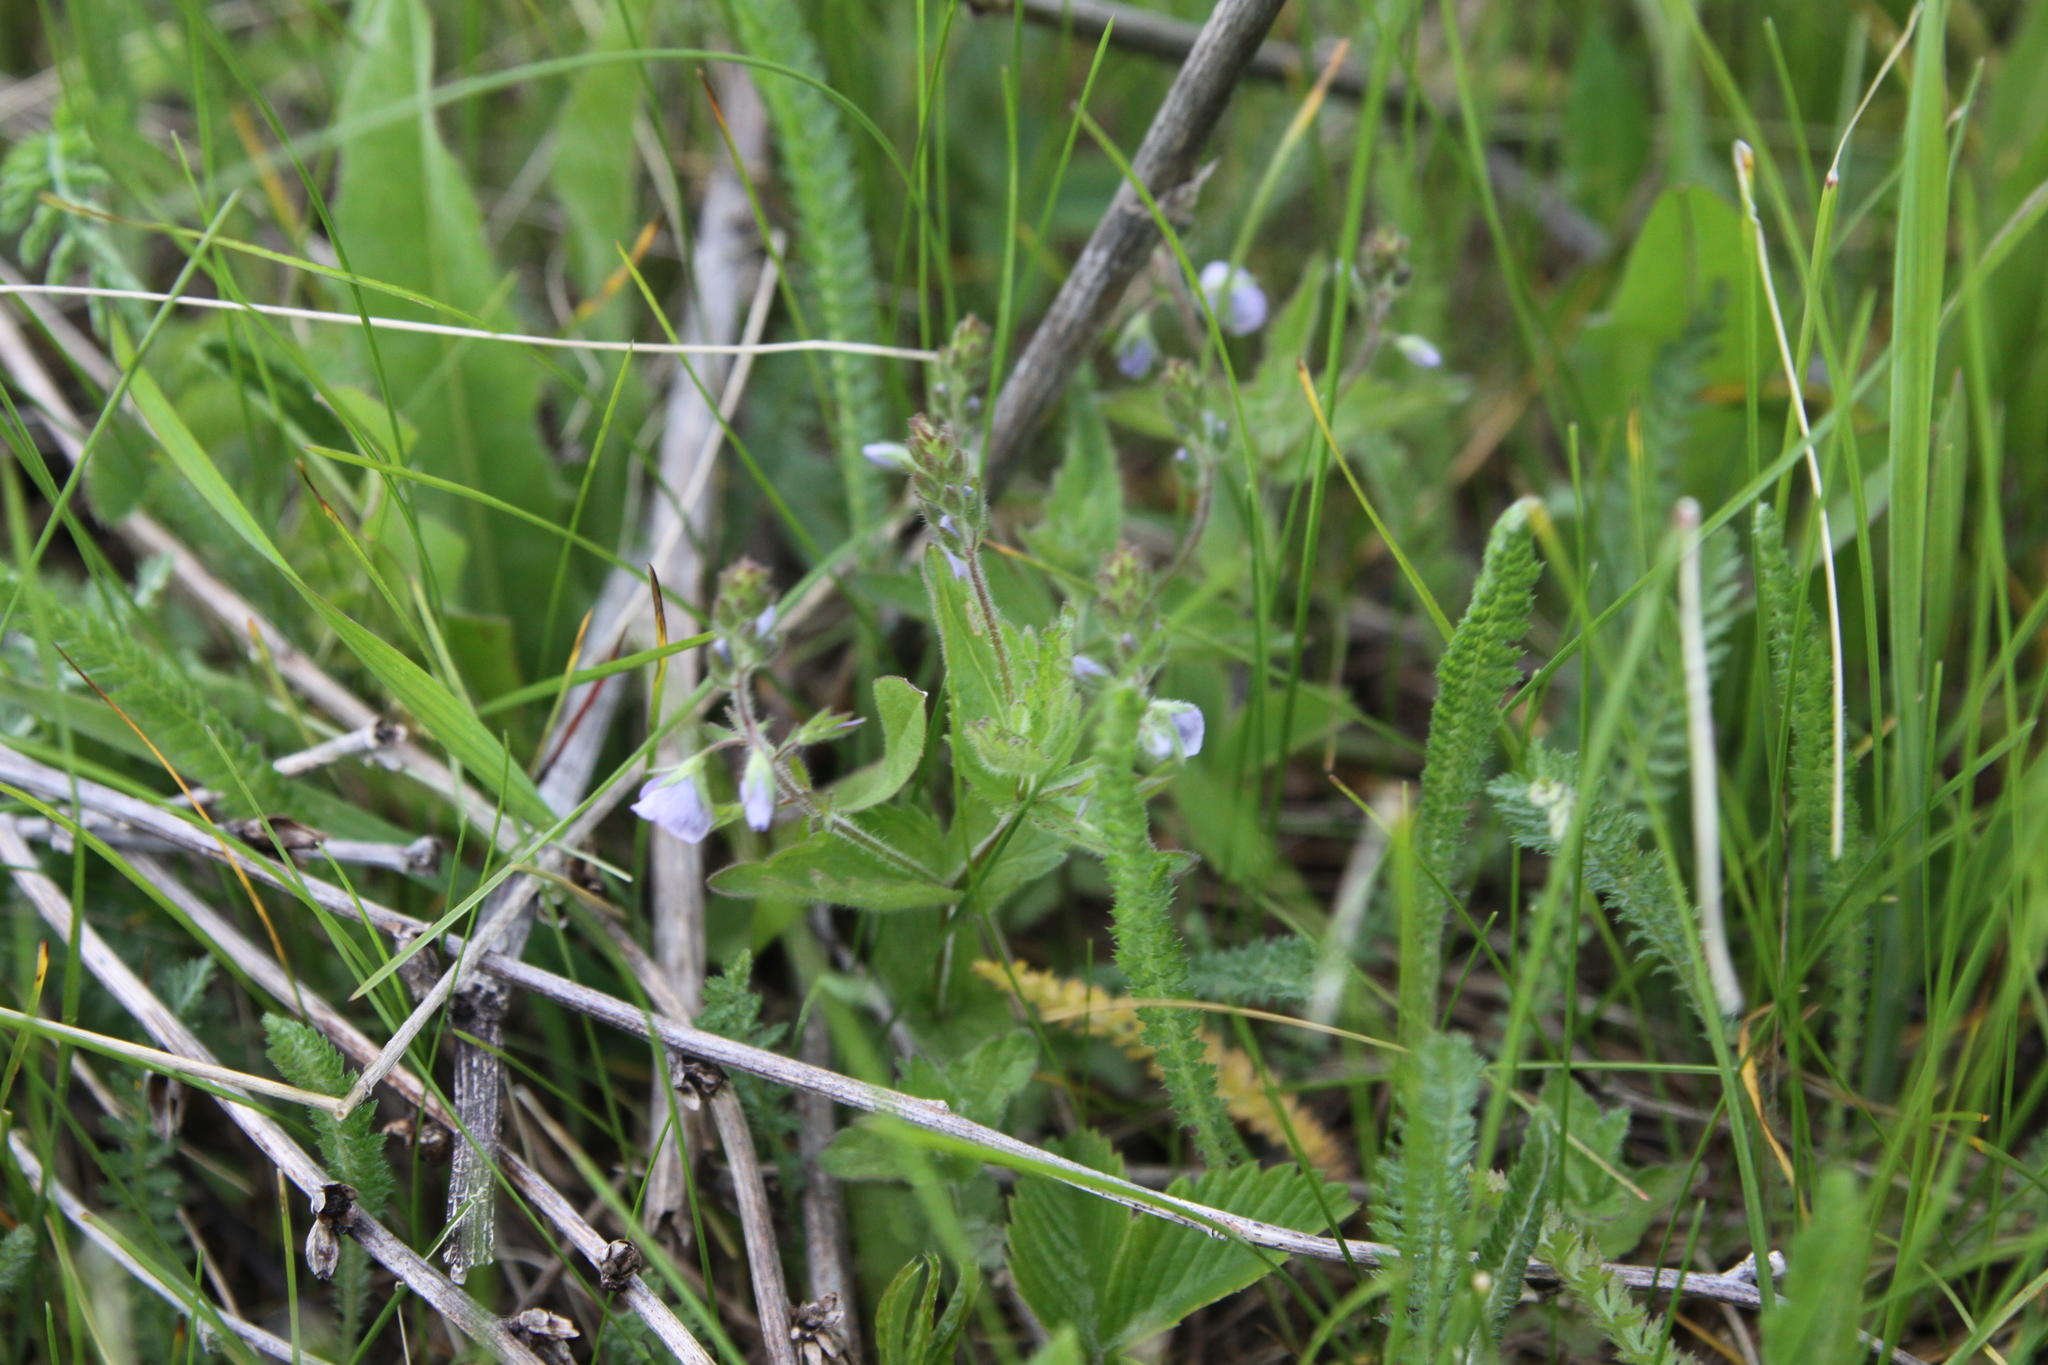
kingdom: Plantae
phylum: Tracheophyta
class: Magnoliopsida
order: Lamiales
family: Plantaginaceae
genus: Veronica
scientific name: Veronica chamaedrys
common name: Germander speedwell
